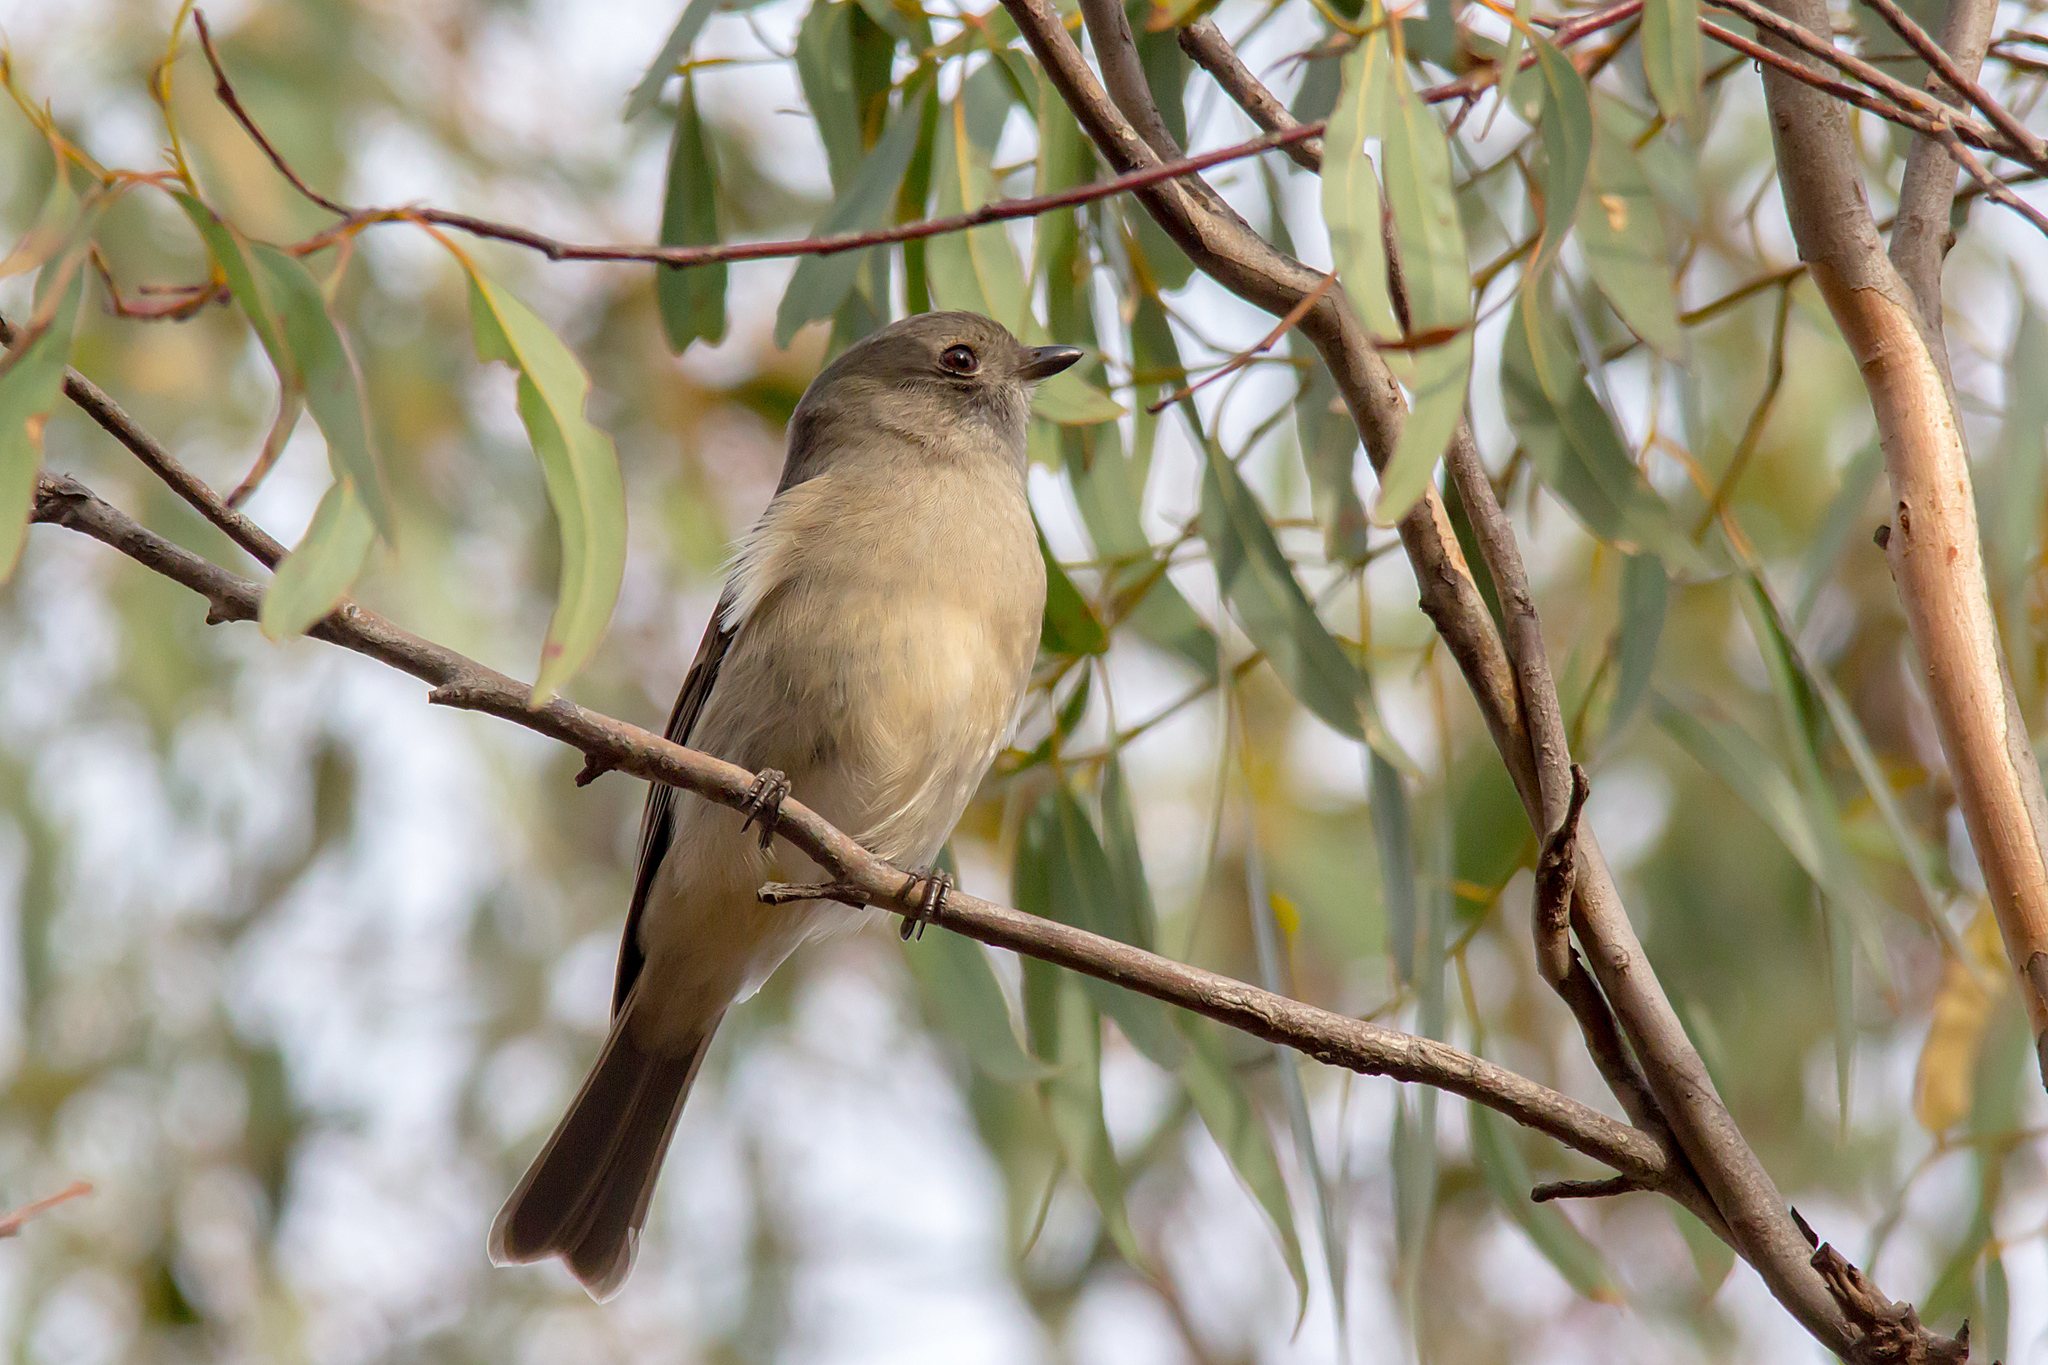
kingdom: Animalia
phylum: Chordata
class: Aves
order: Passeriformes
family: Pachycephalidae
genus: Pachycephala
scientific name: Pachycephala pectoralis
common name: Australian golden whistler
